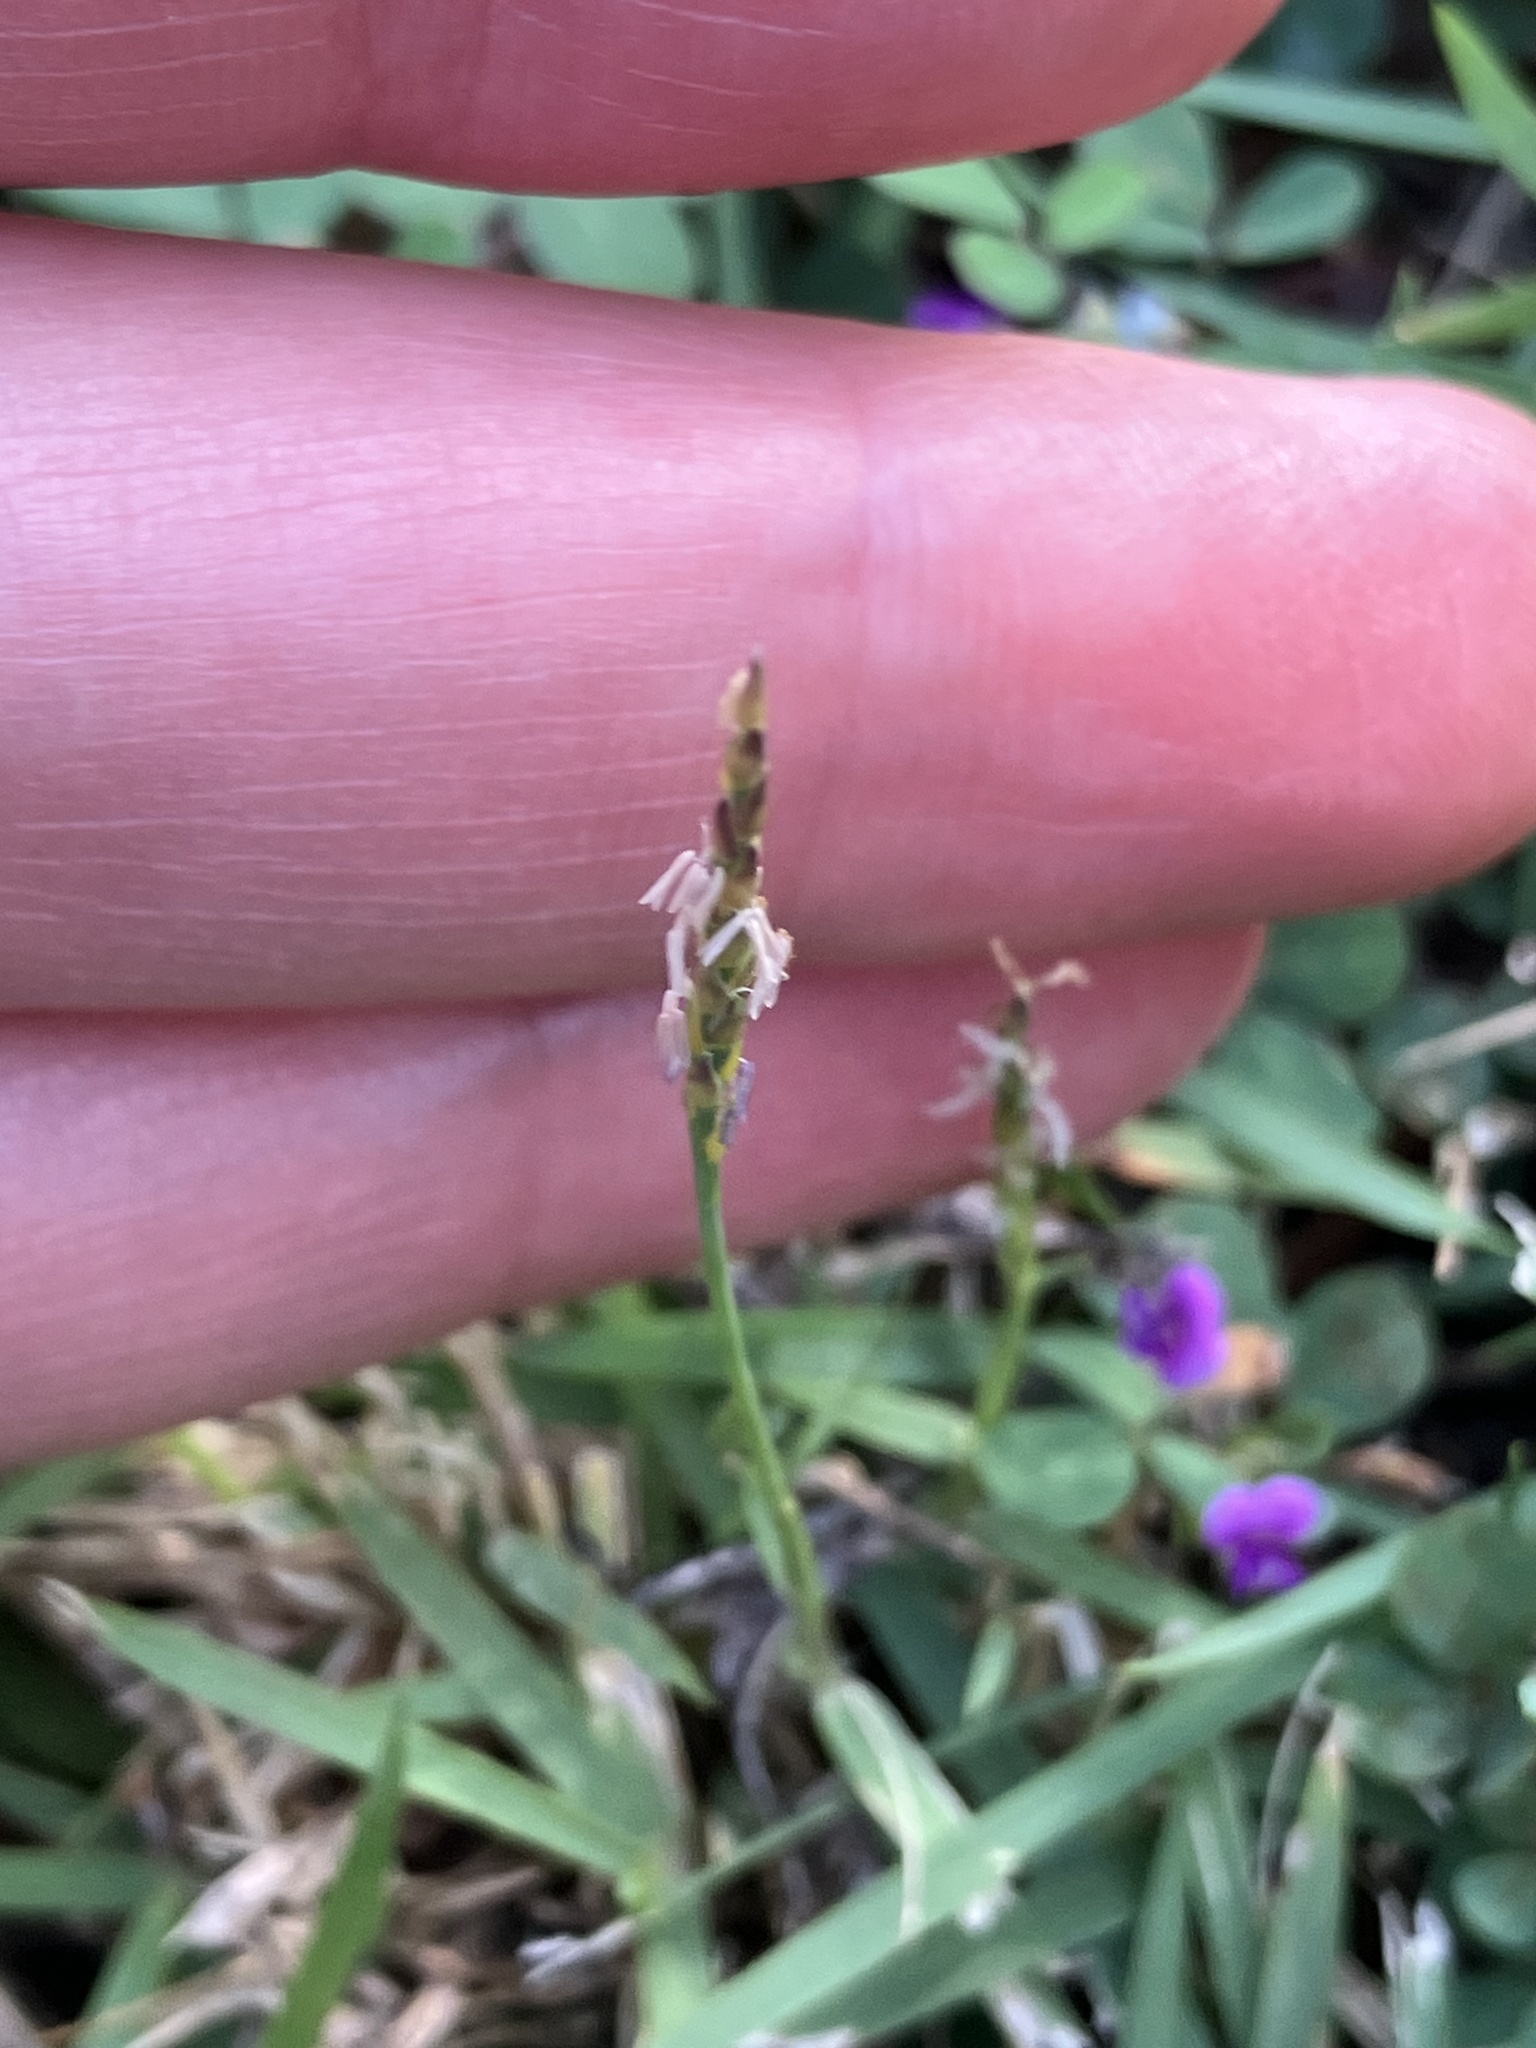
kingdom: Plantae
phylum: Tracheophyta
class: Liliopsida
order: Poales
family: Poaceae
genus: Zoysia
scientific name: Zoysia matrella
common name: Manila grass
